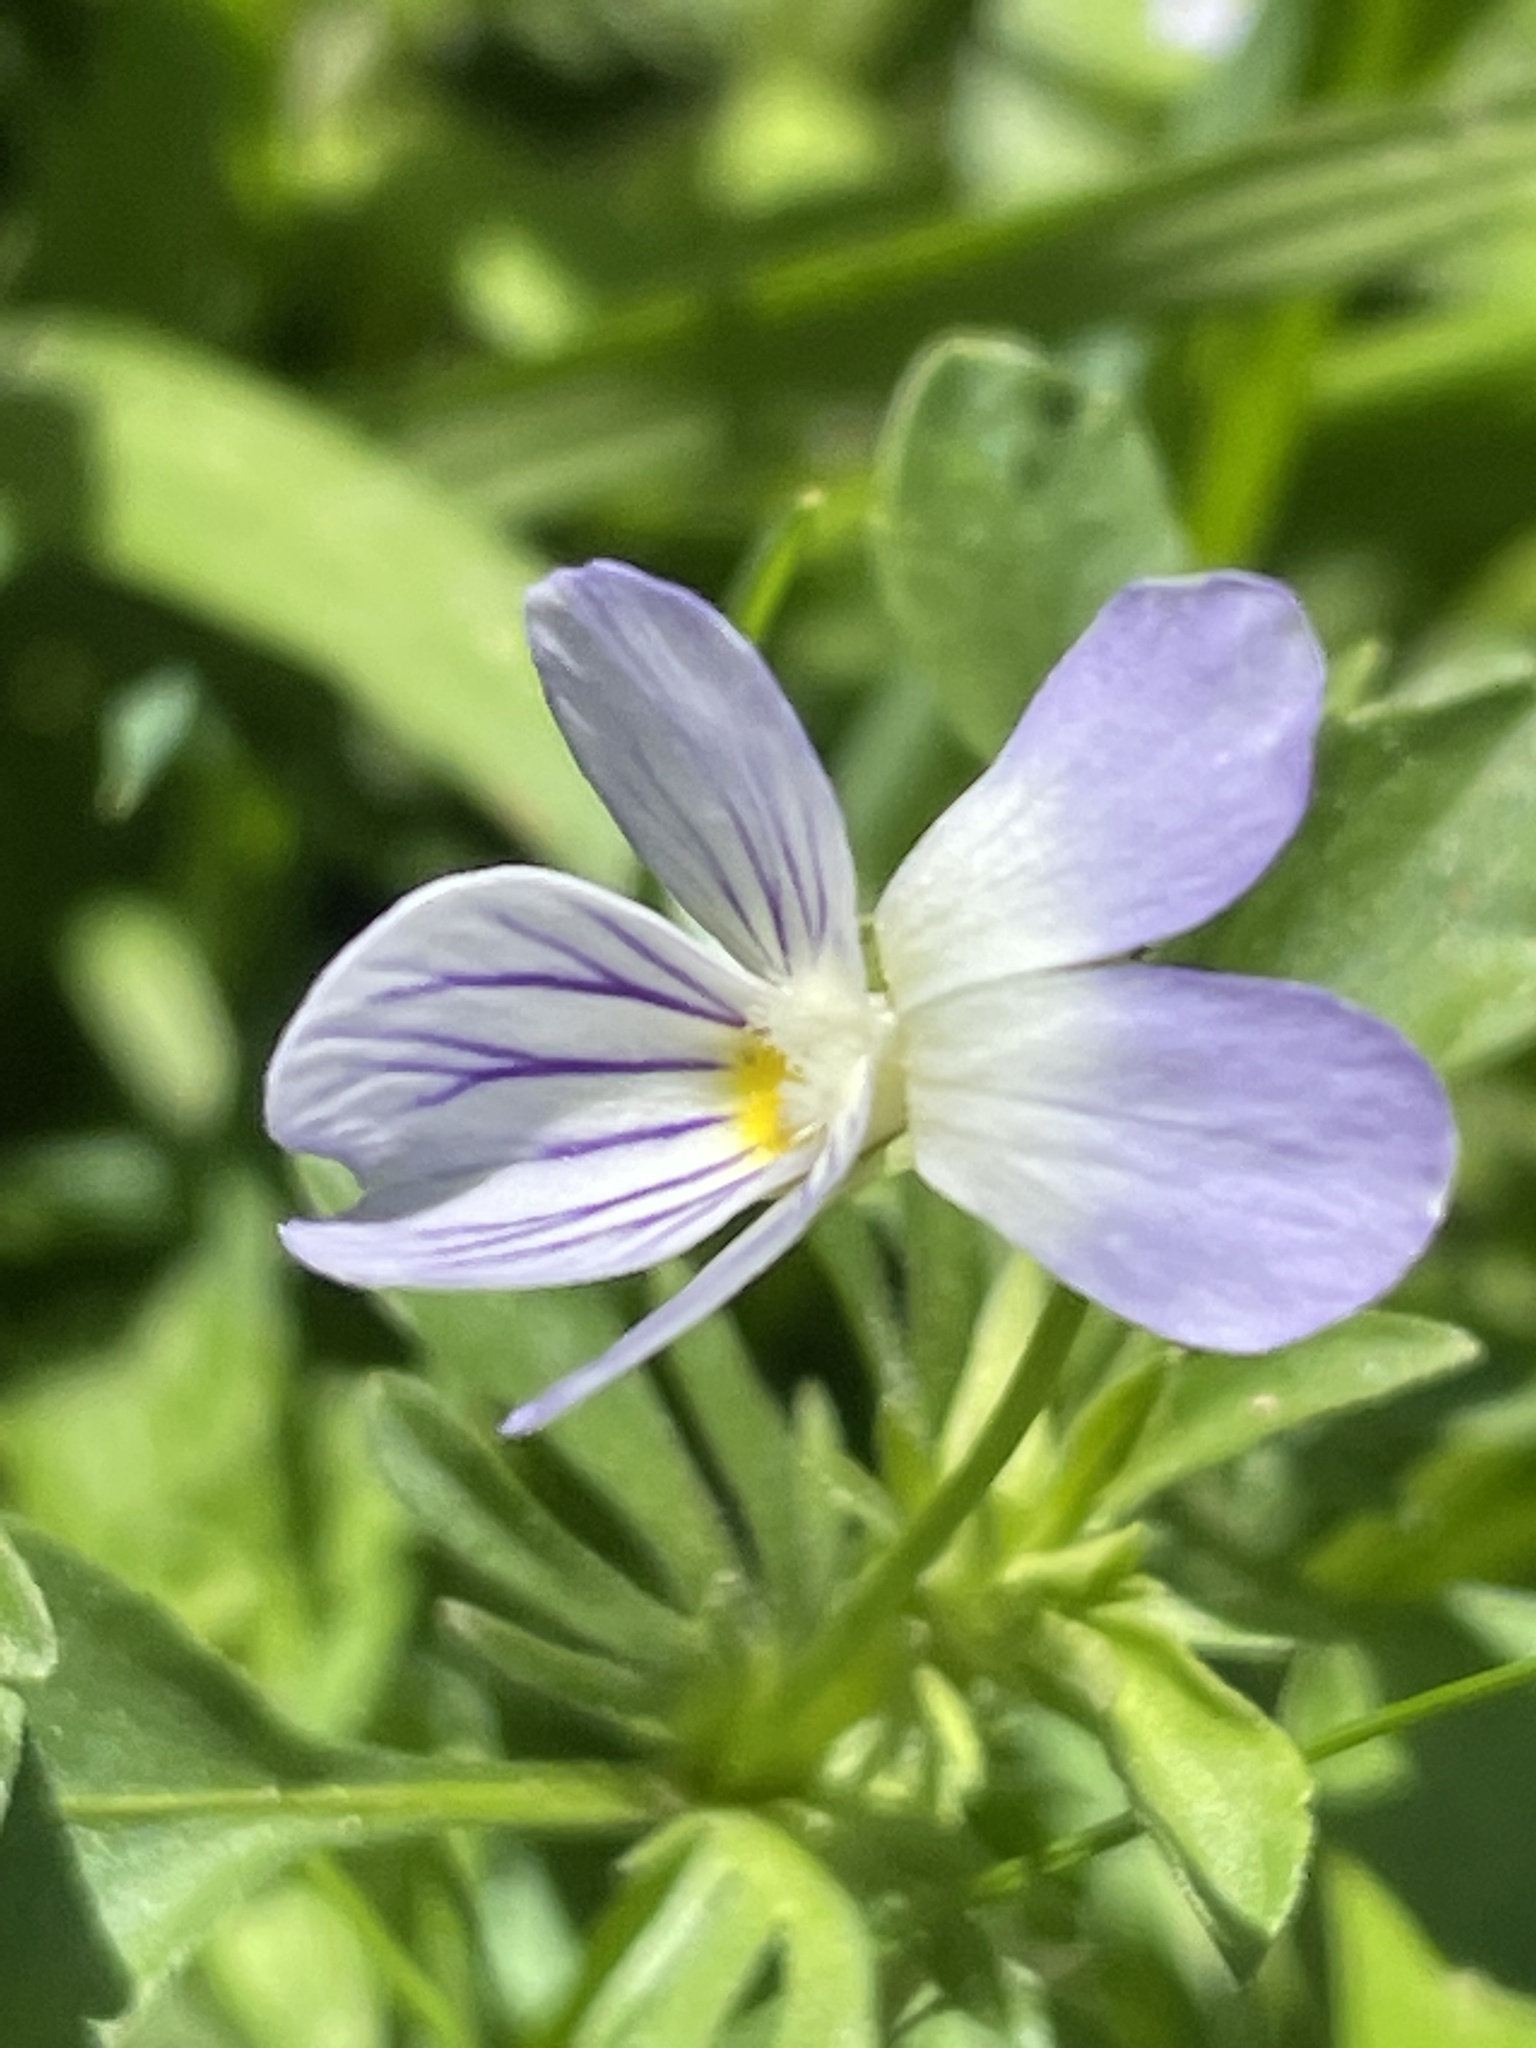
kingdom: Plantae
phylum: Tracheophyta
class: Magnoliopsida
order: Malpighiales
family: Violaceae
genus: Viola
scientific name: Viola rafinesquei
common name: American field pansy
